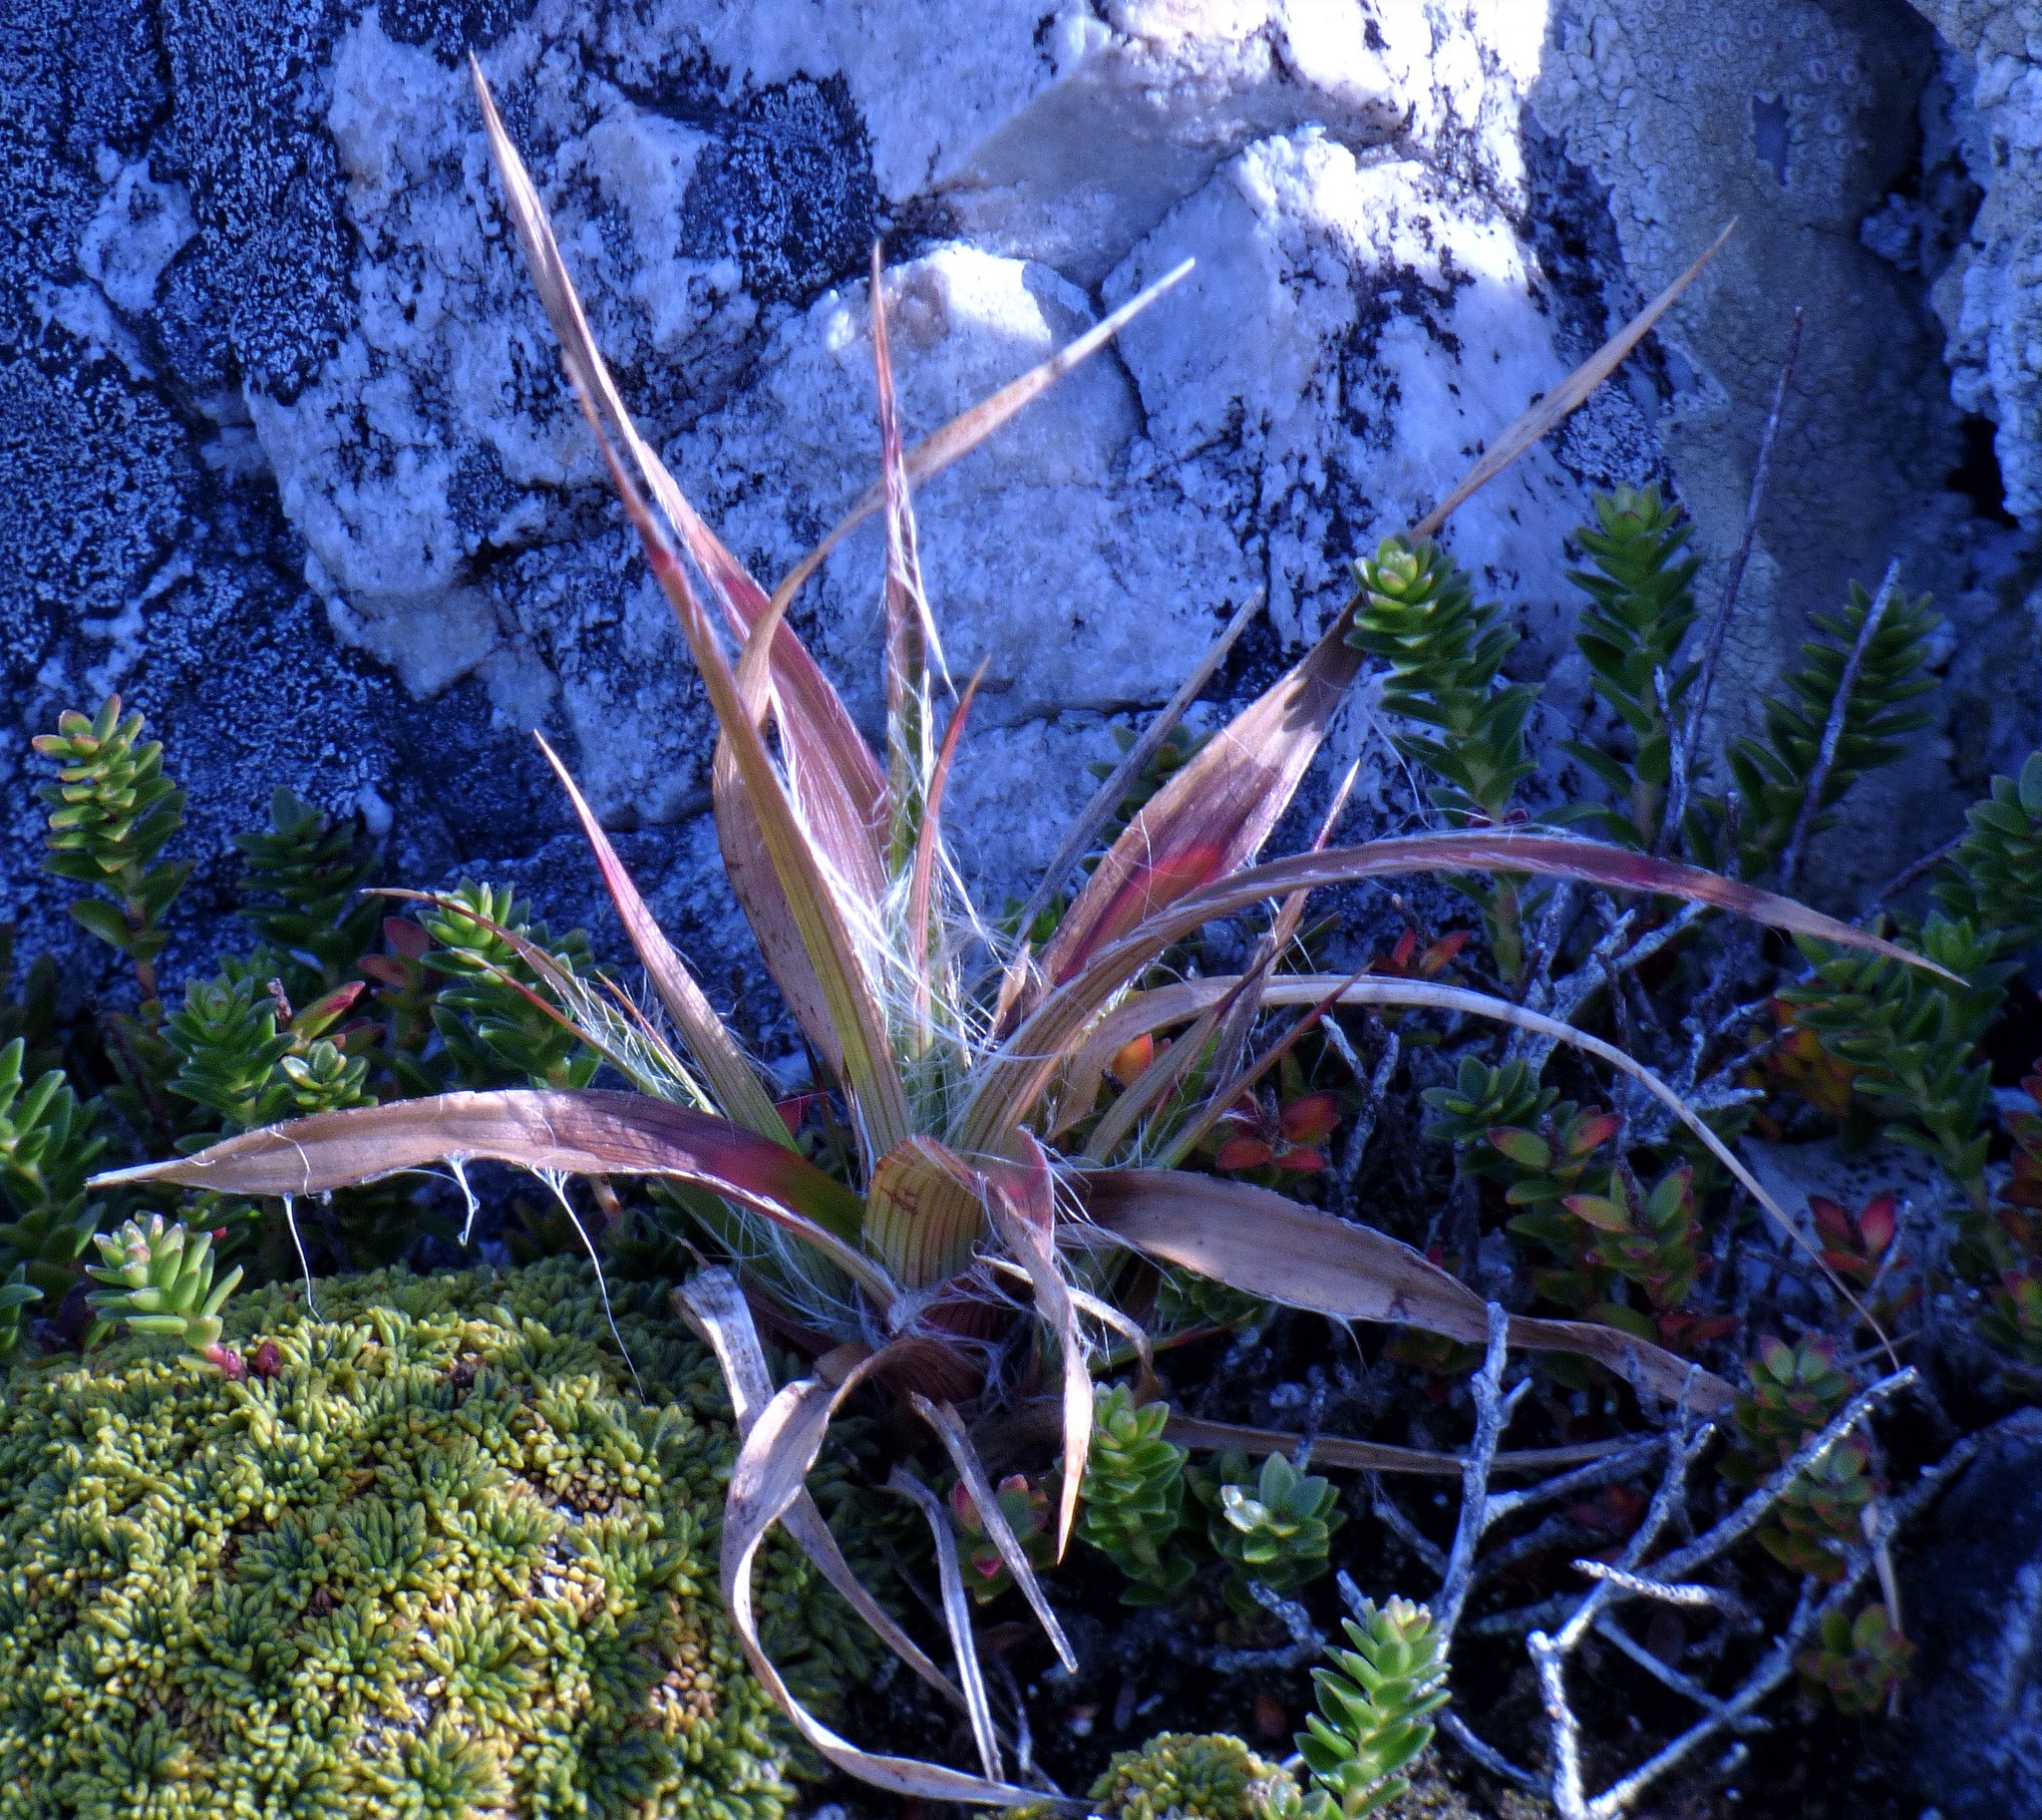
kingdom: Plantae
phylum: Tracheophyta
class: Liliopsida
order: Poales
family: Juncaceae
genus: Luzula
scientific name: Luzula alopecurus
